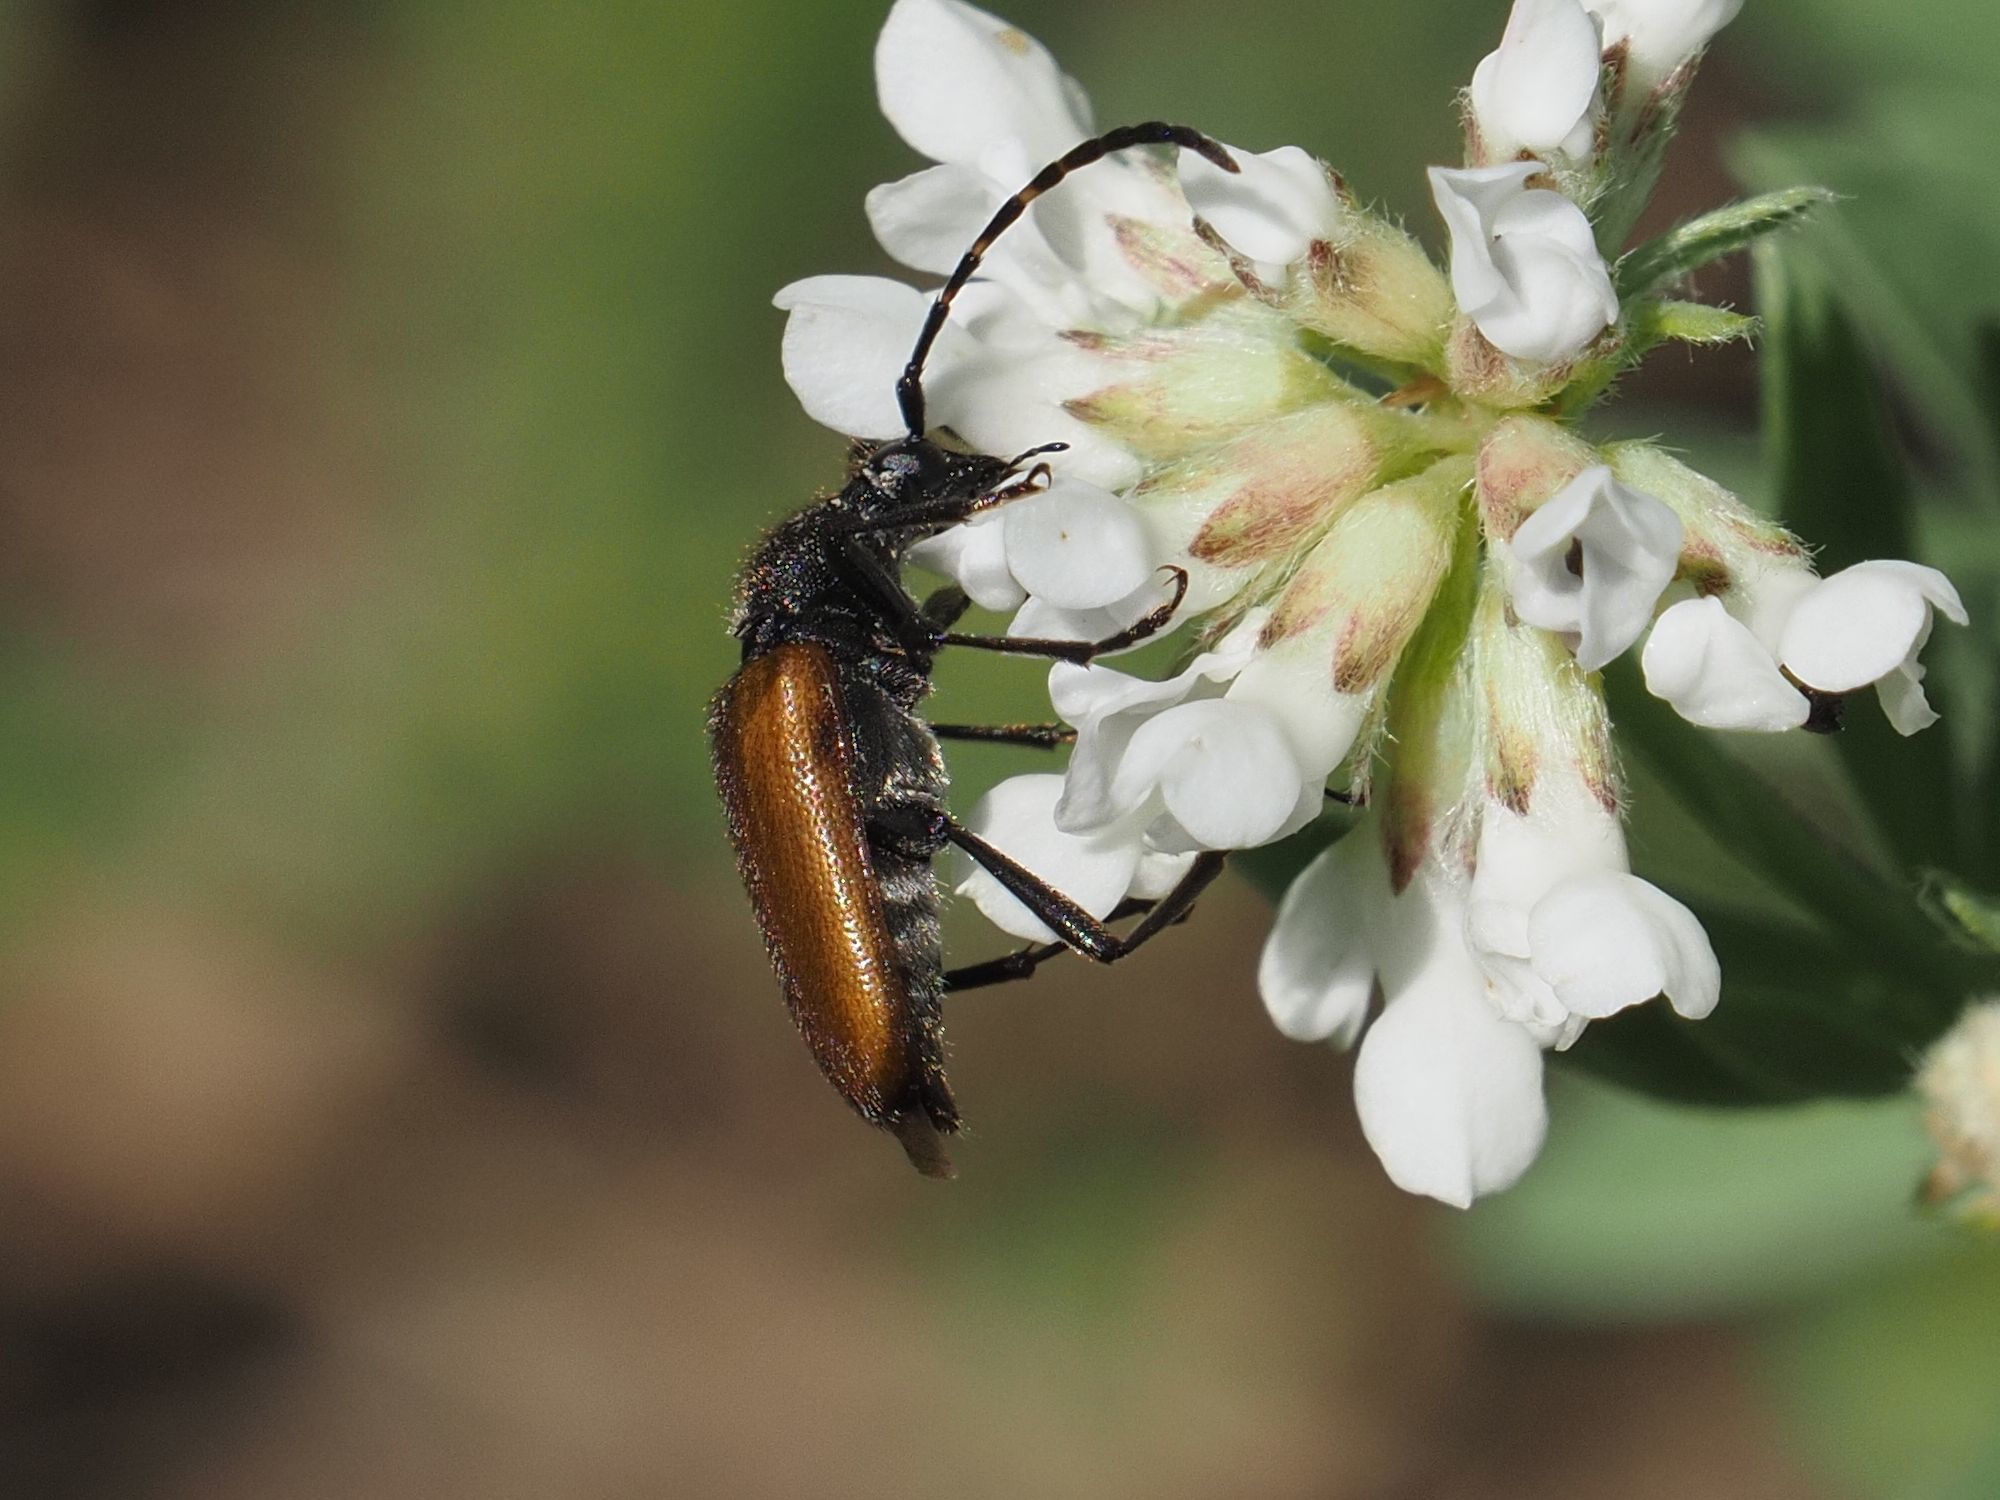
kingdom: Animalia
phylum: Arthropoda
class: Insecta
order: Coleoptera
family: Cerambycidae
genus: Paracorymbia
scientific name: Paracorymbia maculicornis
